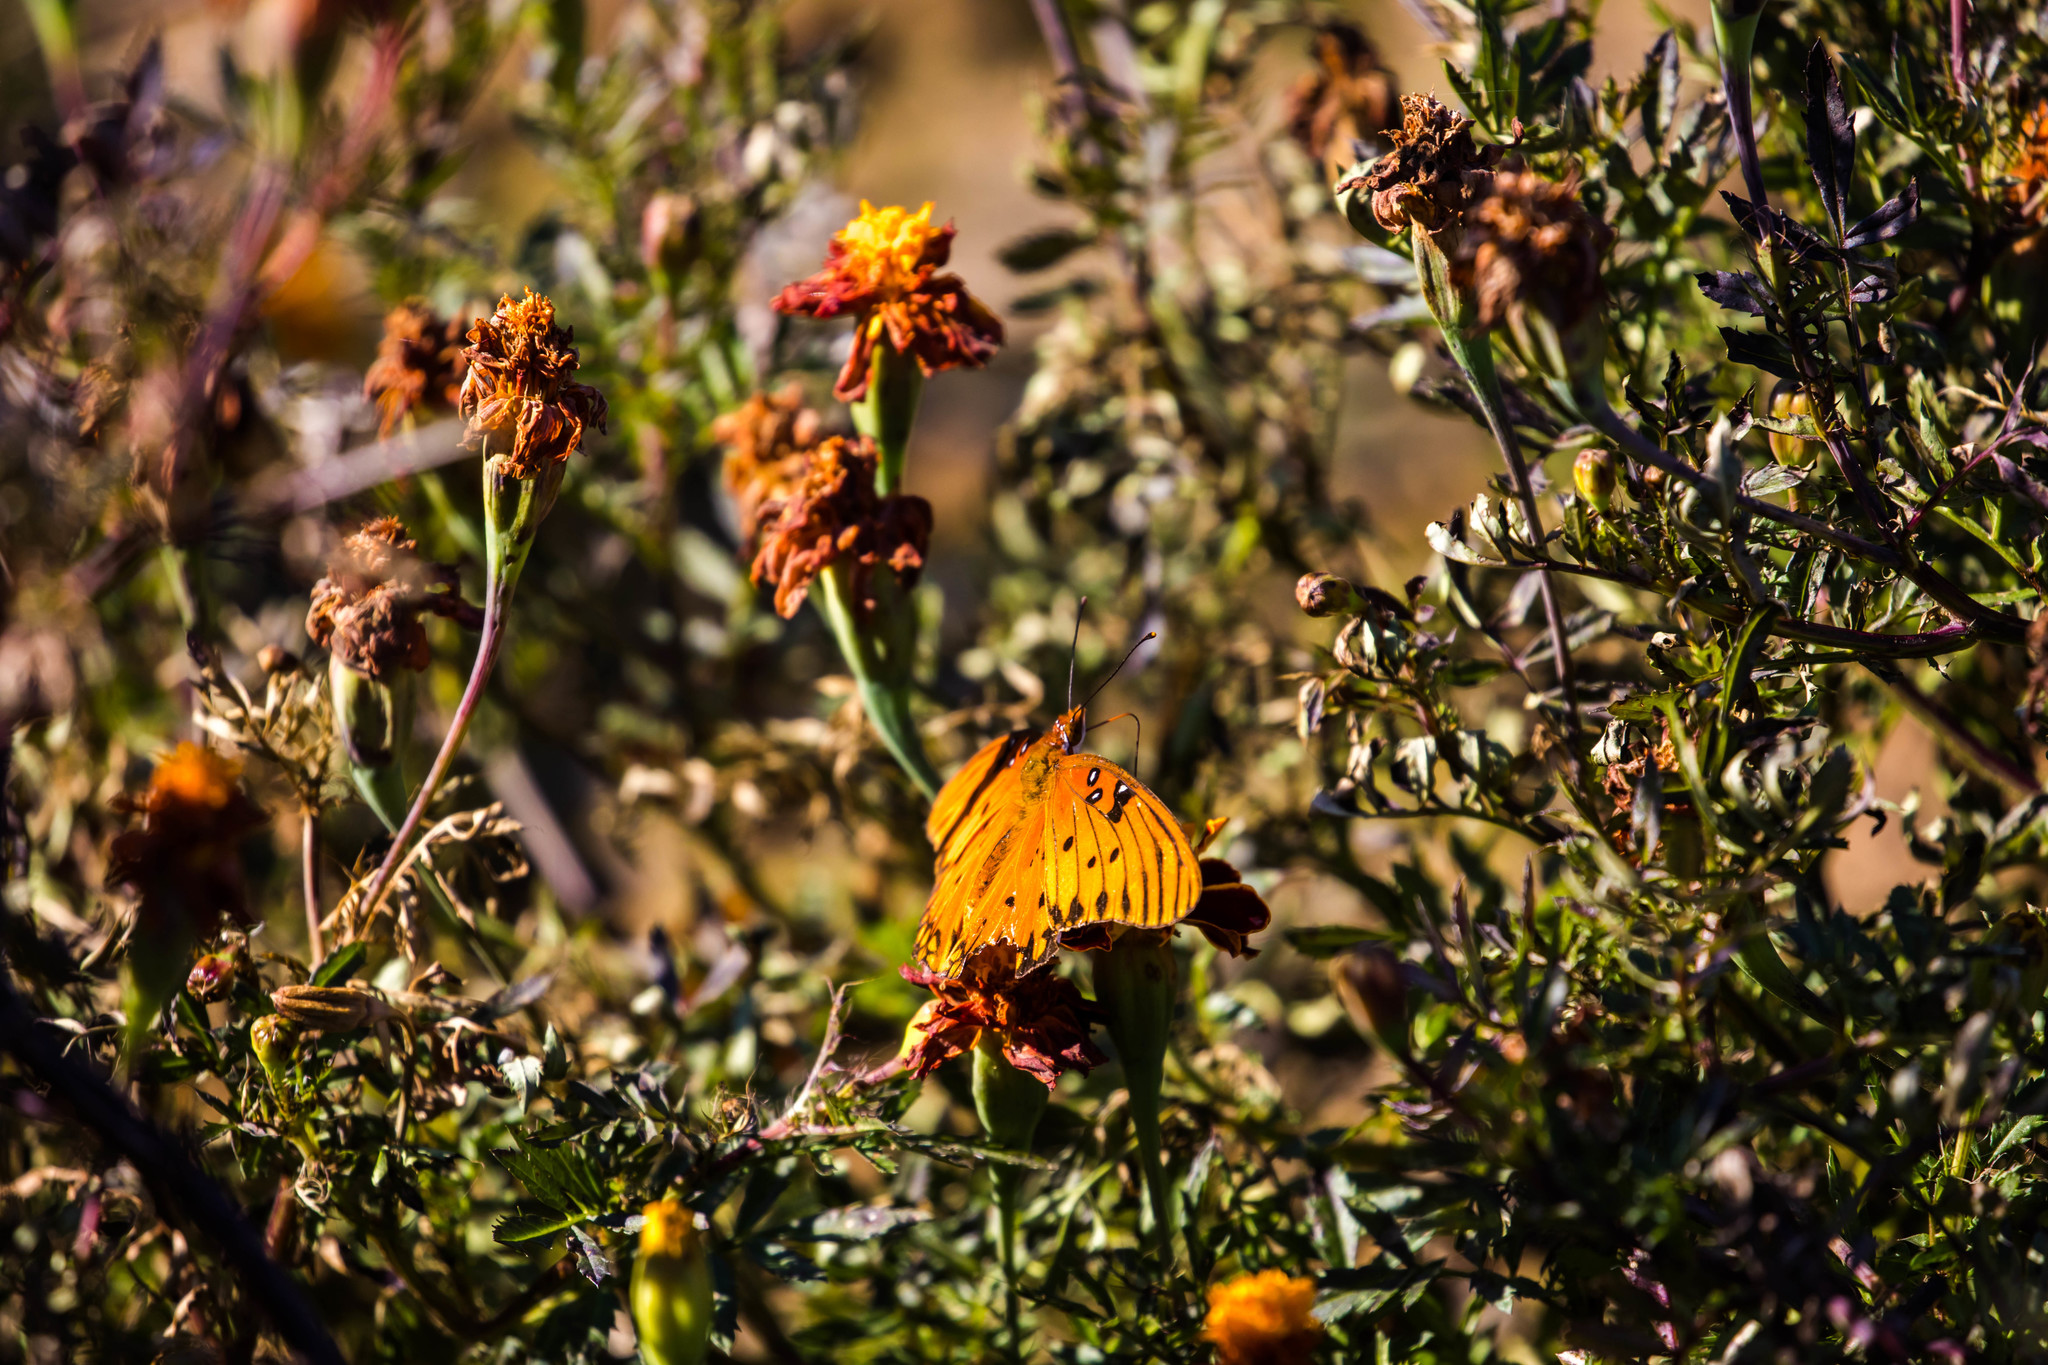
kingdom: Animalia
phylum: Arthropoda
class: Insecta
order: Lepidoptera
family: Nymphalidae
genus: Dione
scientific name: Dione vanillae
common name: Gulf fritillary
